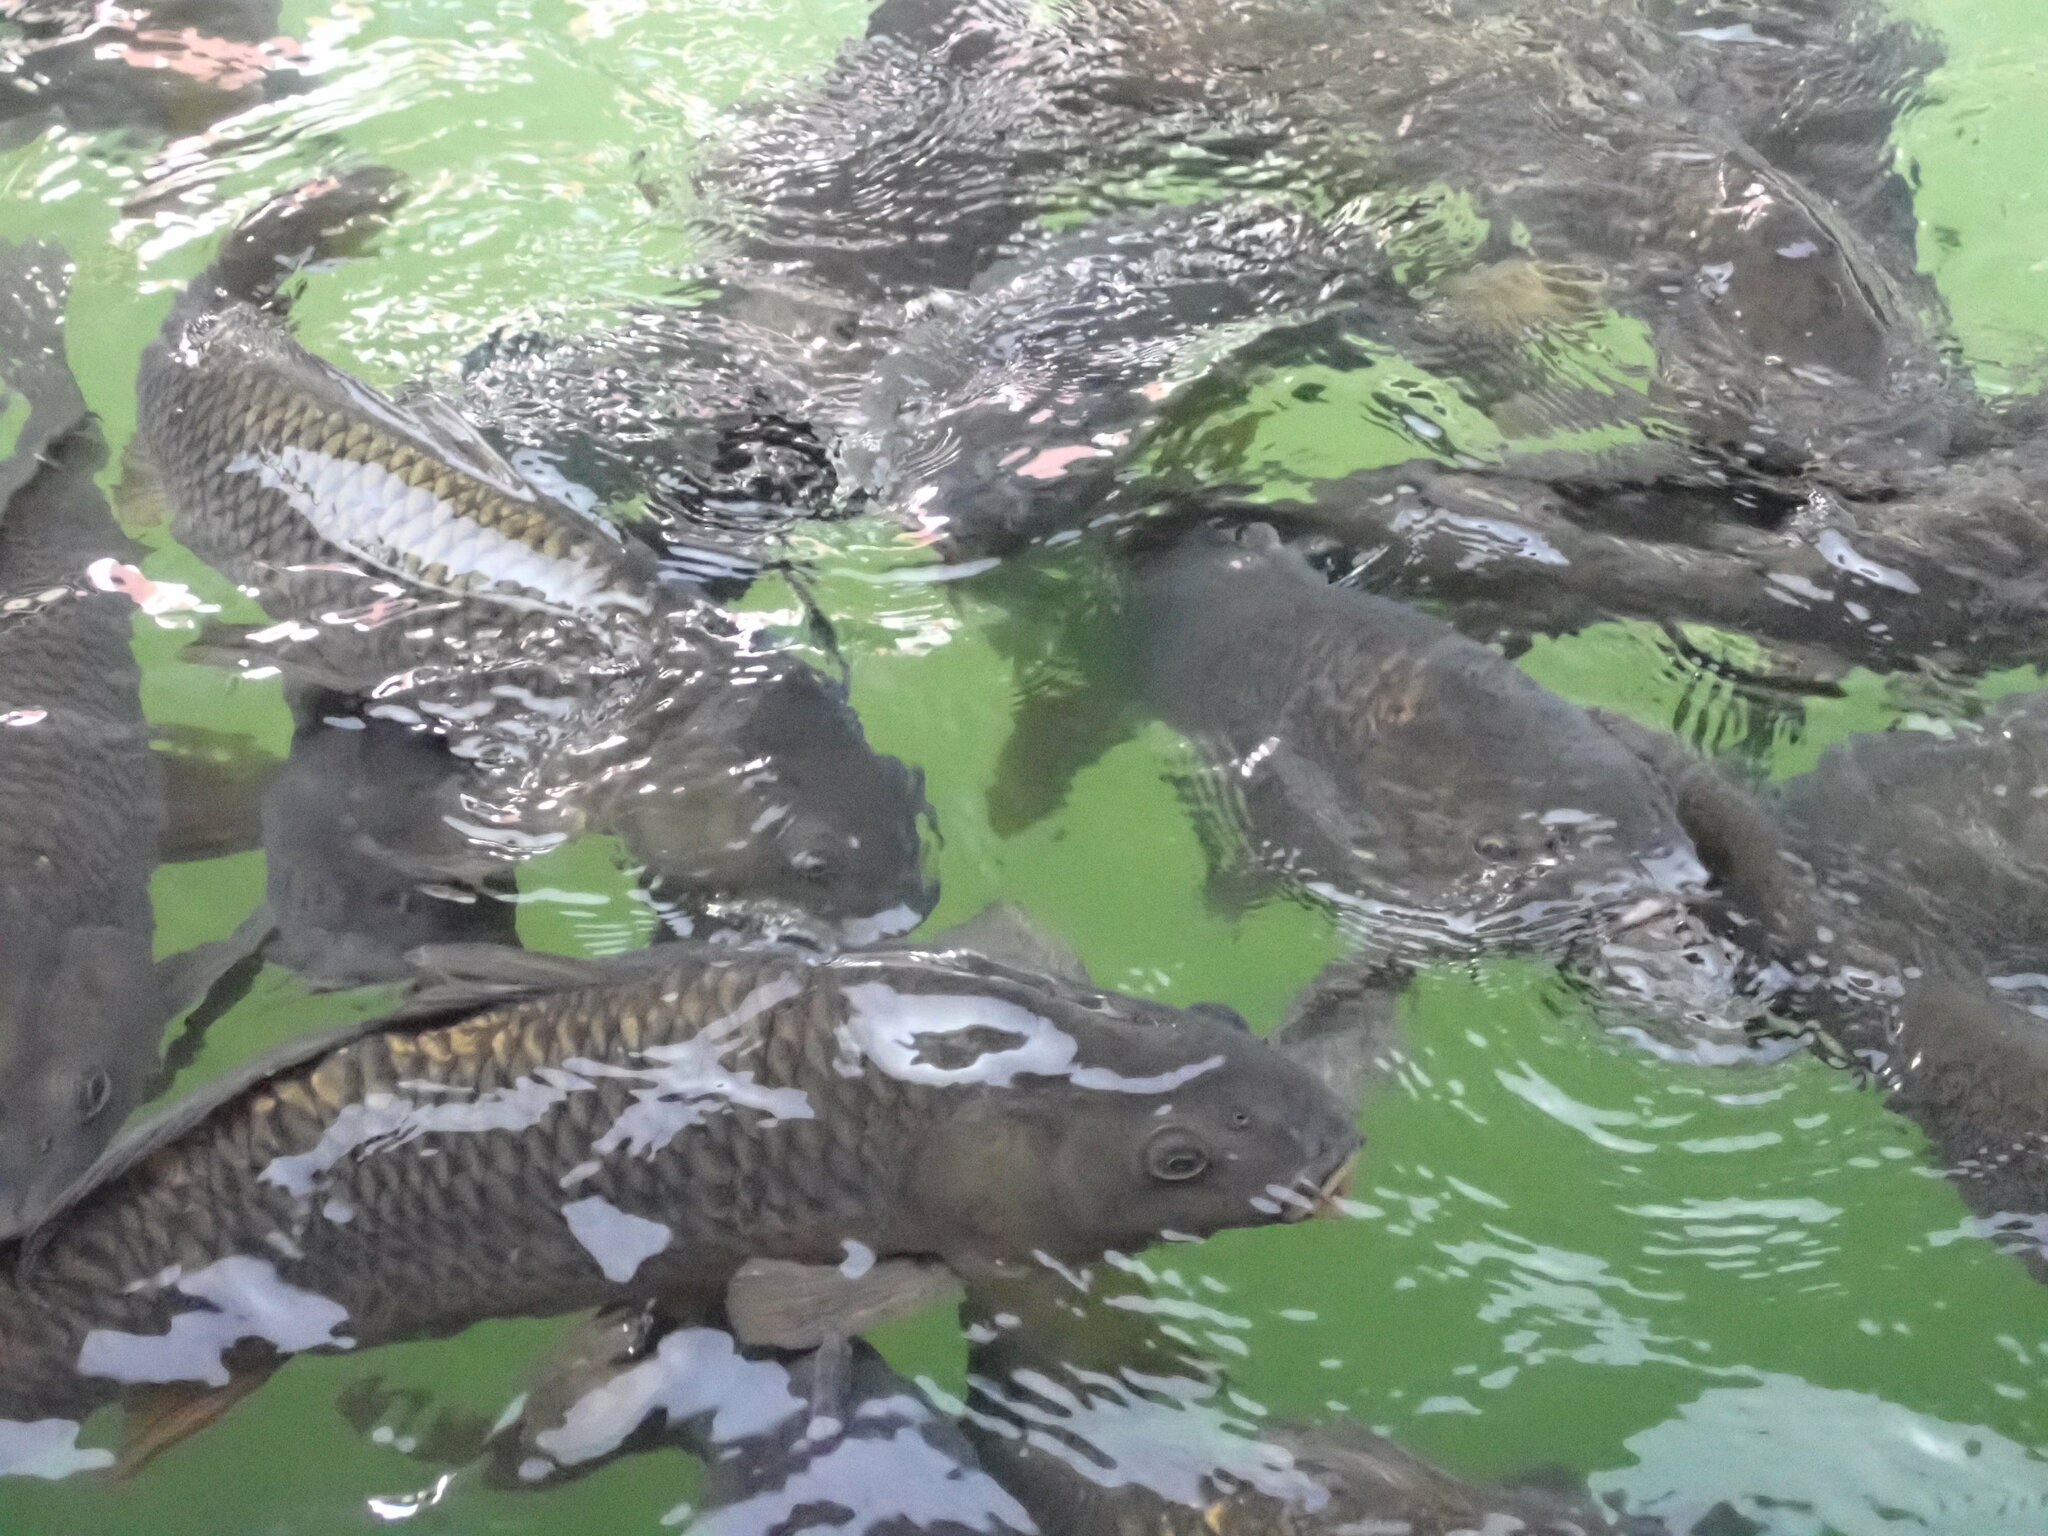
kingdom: Animalia
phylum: Chordata
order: Cypriniformes
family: Cyprinidae
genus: Cyprinus
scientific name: Cyprinus carpio
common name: Common carp
